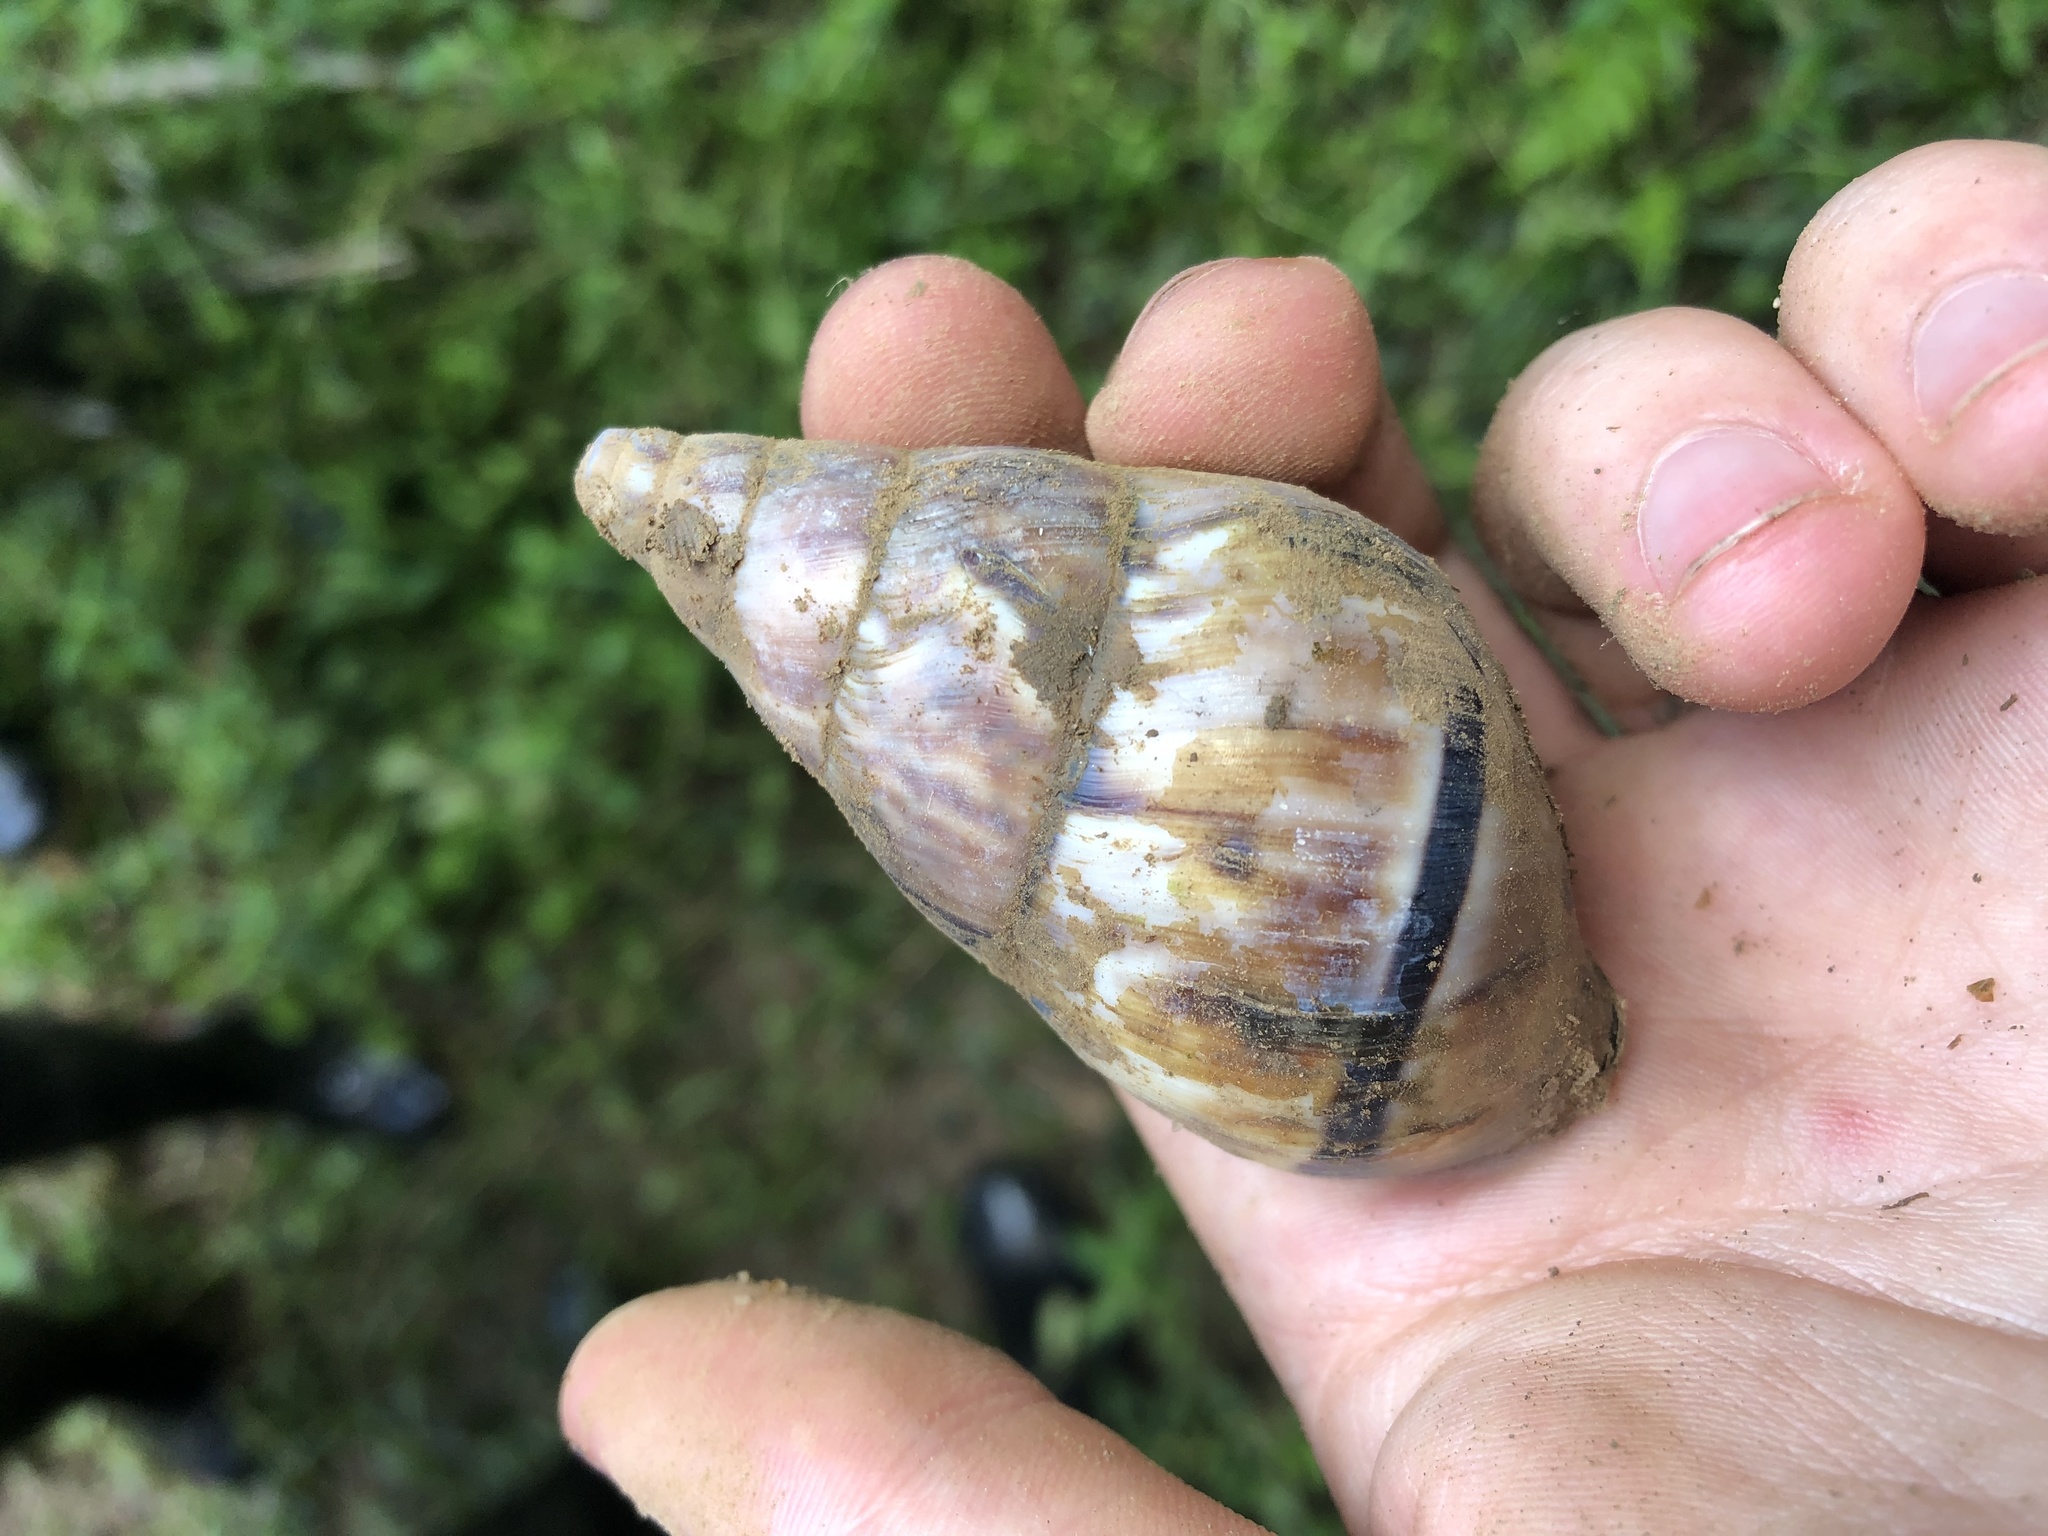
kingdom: Animalia
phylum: Mollusca
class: Gastropoda
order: Stylommatophora
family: Orthalicidae
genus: Corona
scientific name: Corona incisa
